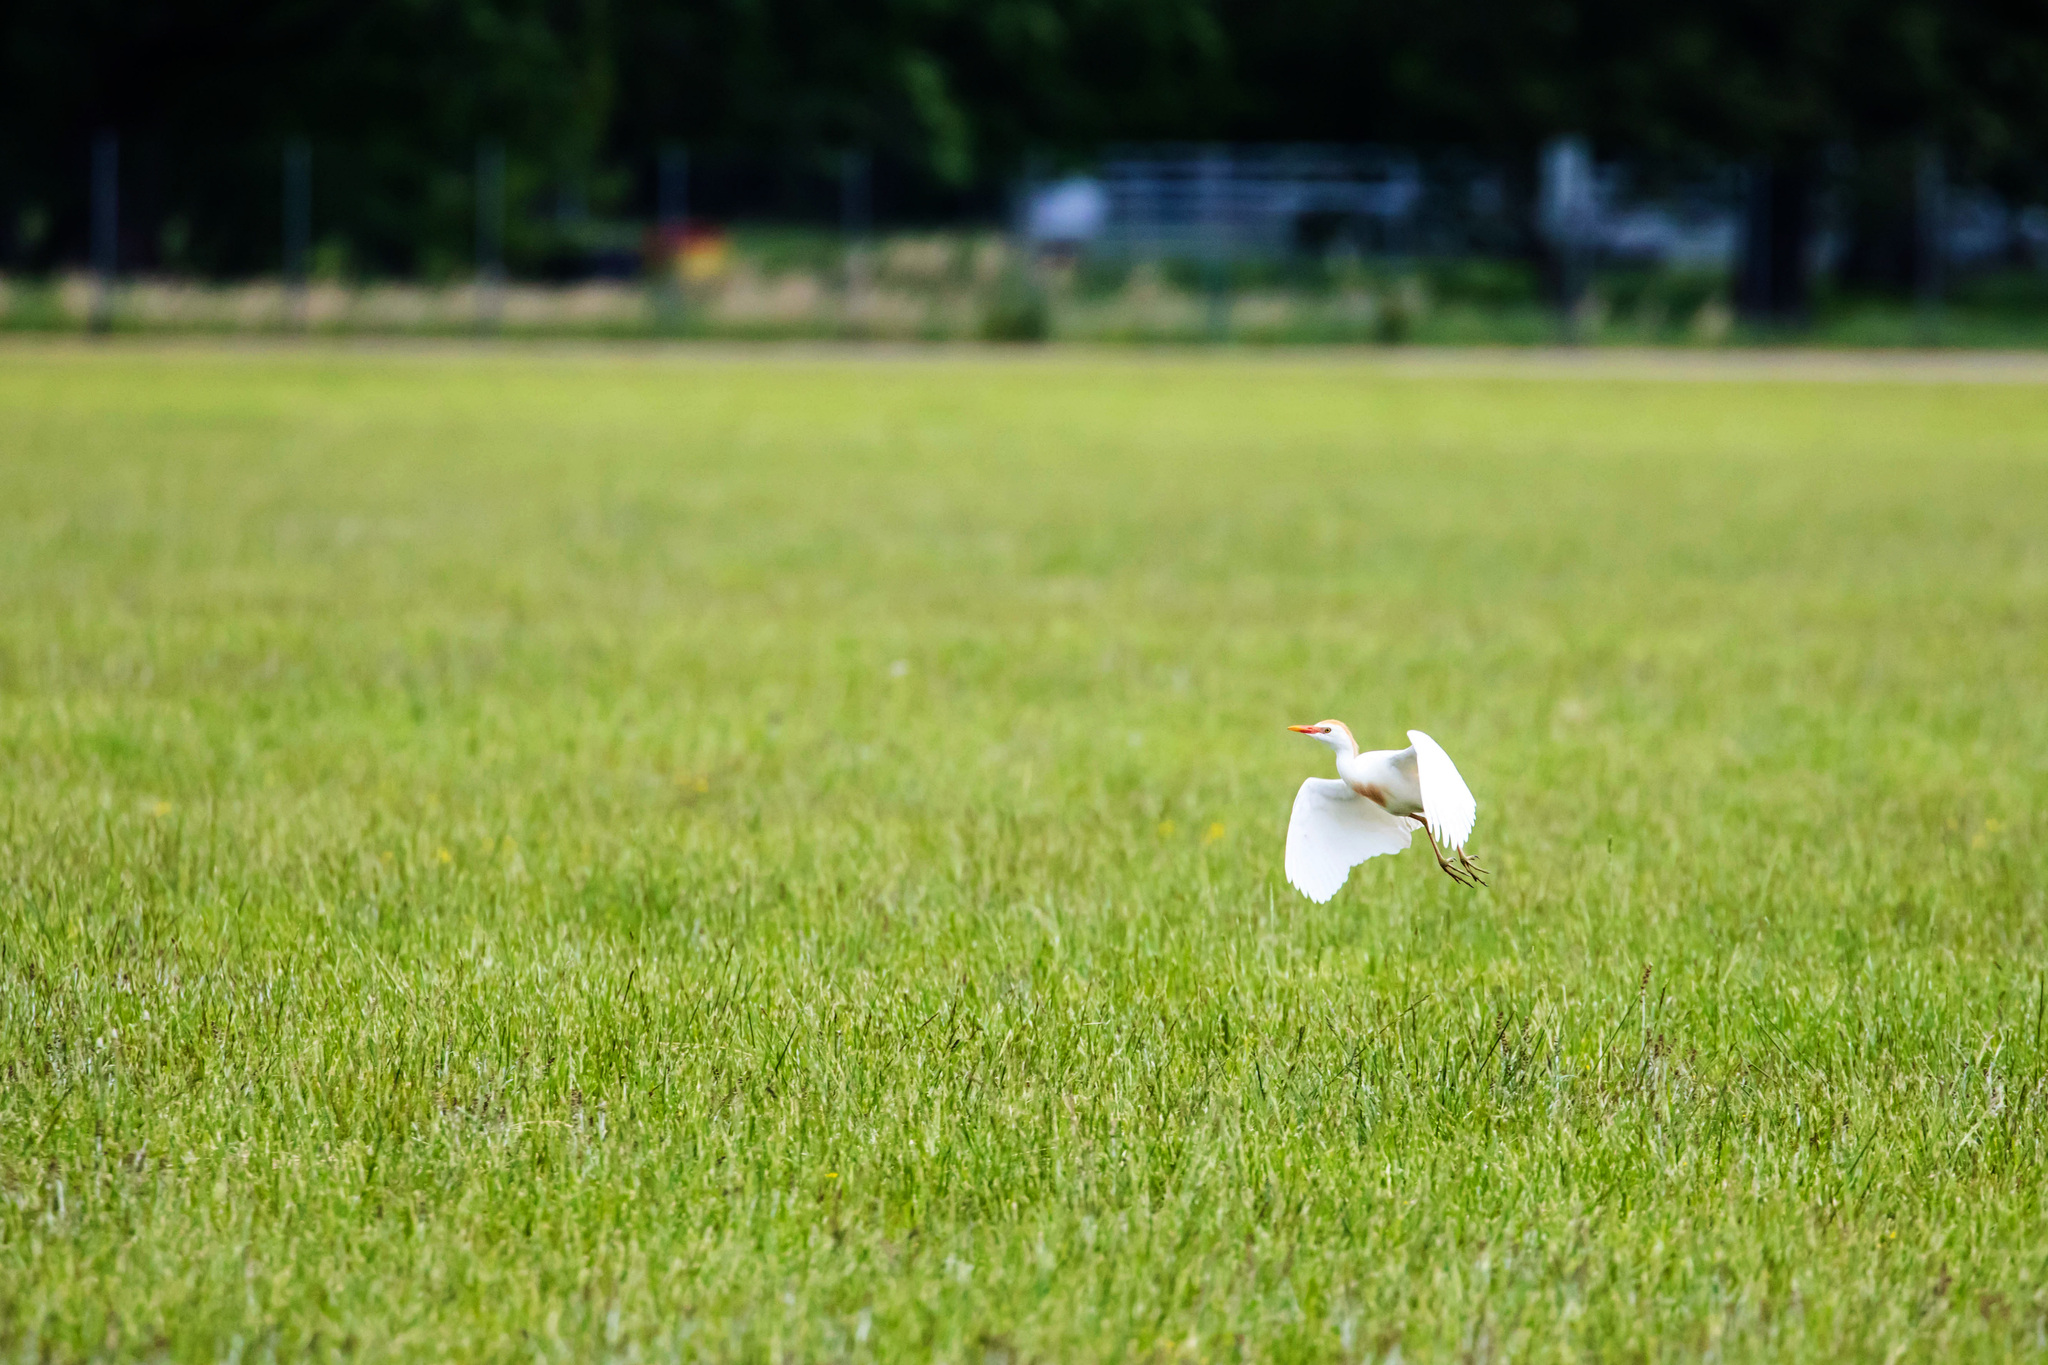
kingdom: Animalia
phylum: Chordata
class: Aves
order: Pelecaniformes
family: Ardeidae
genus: Bubulcus
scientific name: Bubulcus ibis
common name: Cattle egret
